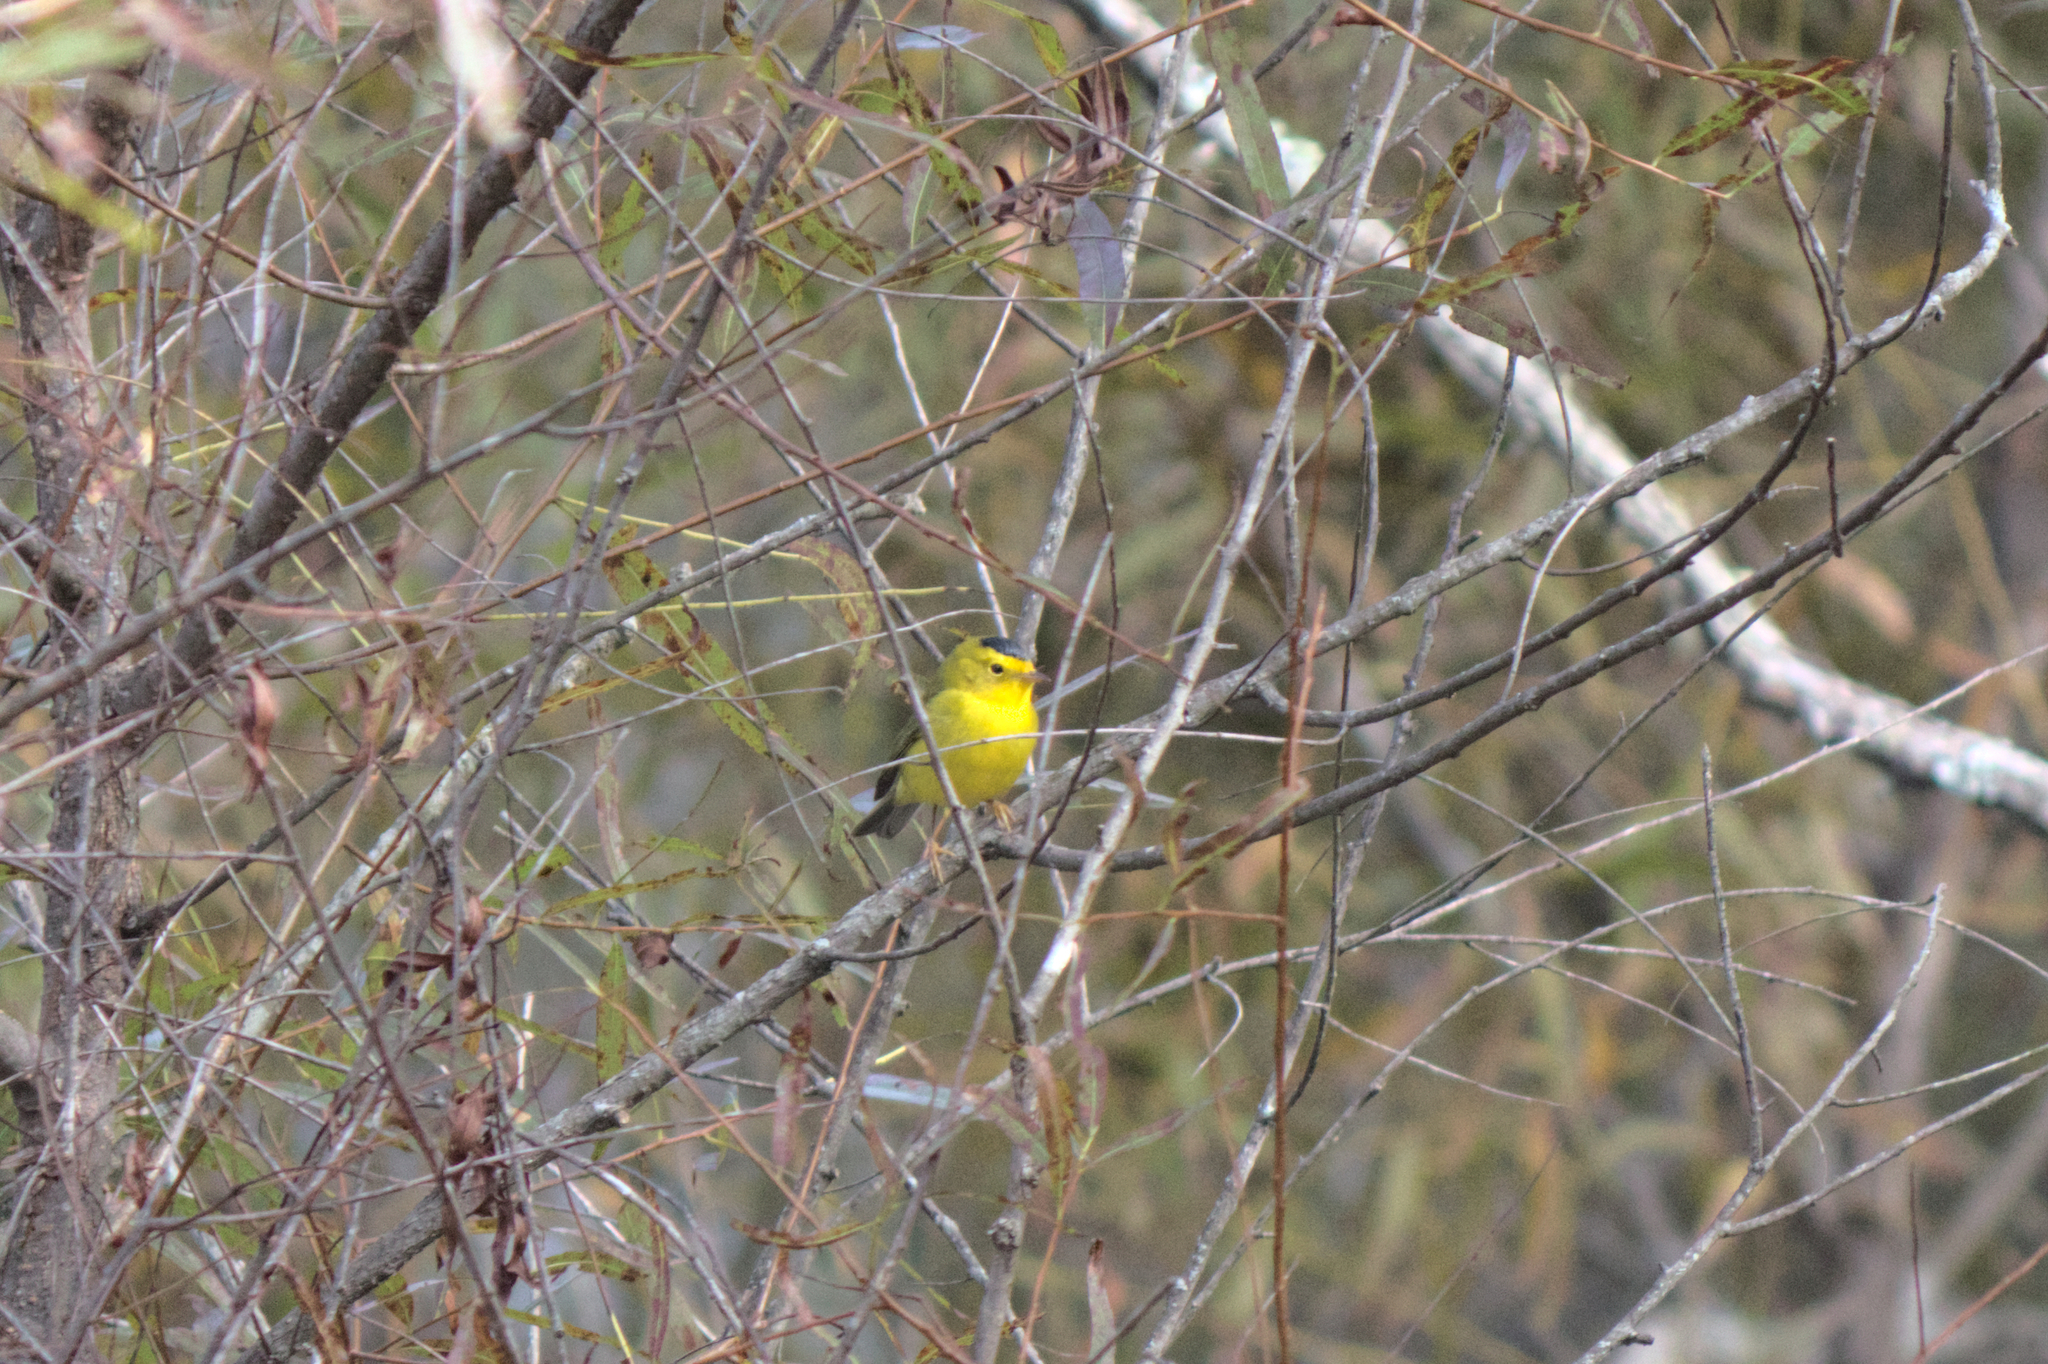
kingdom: Animalia
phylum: Chordata
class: Aves
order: Passeriformes
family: Parulidae
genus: Cardellina
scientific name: Cardellina pusilla
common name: Wilson's warbler
